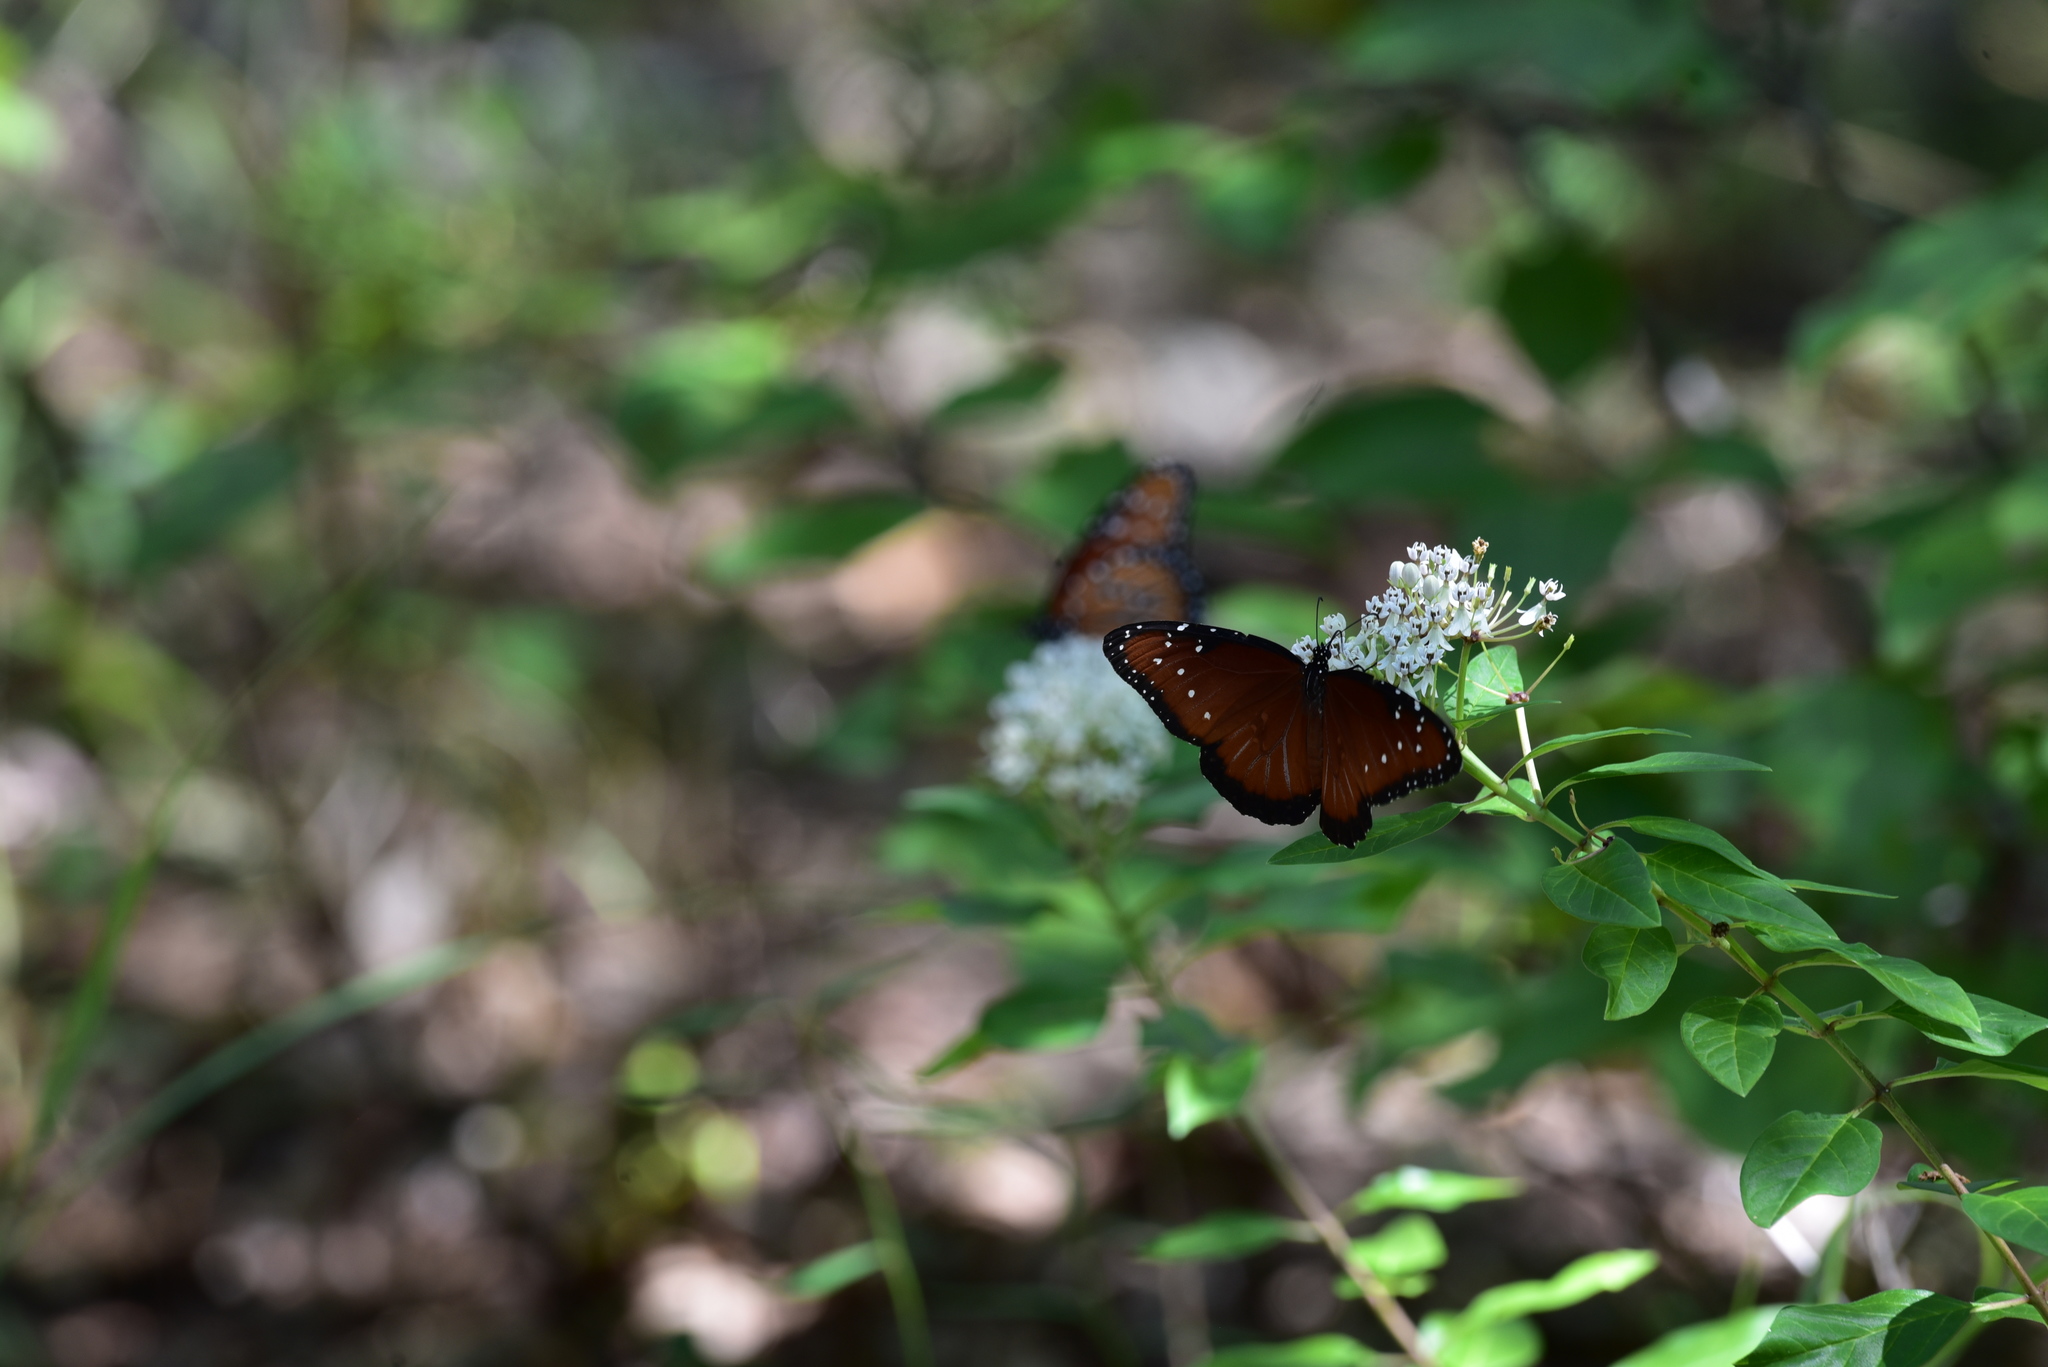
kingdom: Animalia
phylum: Arthropoda
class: Insecta
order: Lepidoptera
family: Nymphalidae
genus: Danaus
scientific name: Danaus gilippus
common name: Queen
